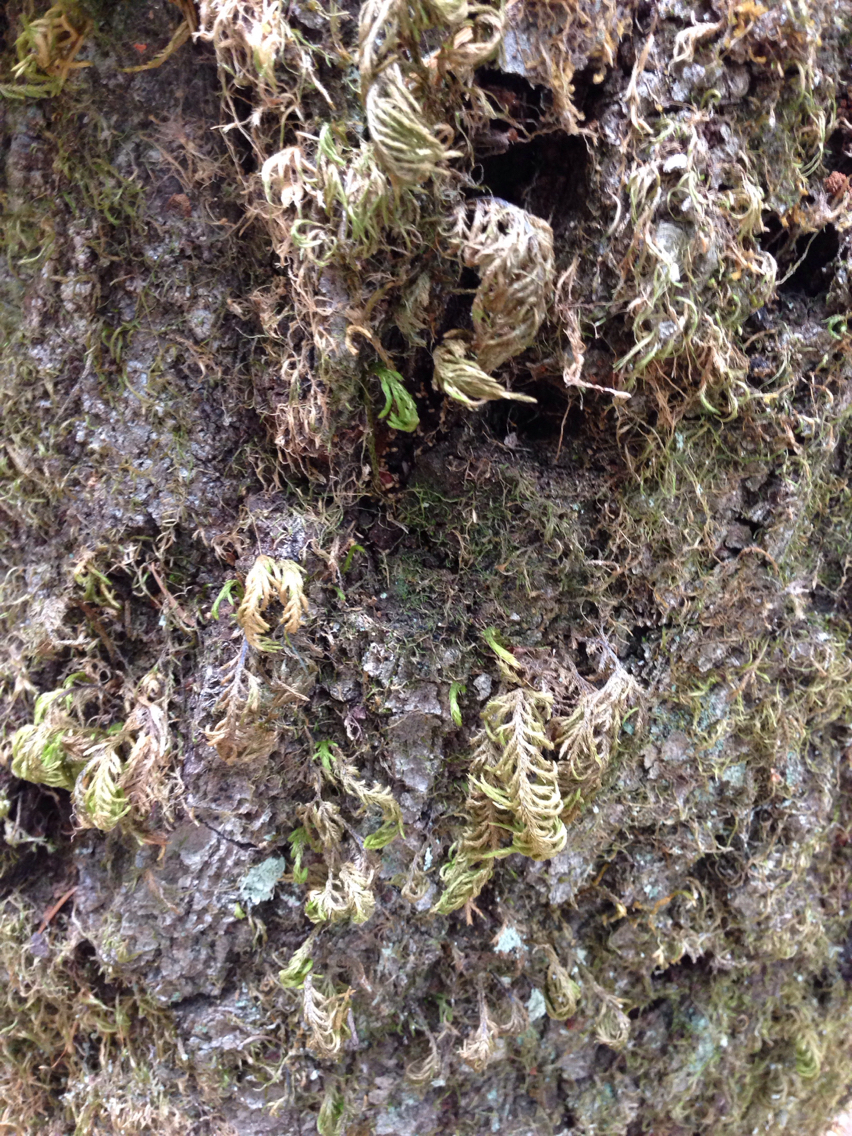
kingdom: Plantae
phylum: Bryophyta
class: Bryopsida
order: Hypnales
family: Cryphaeaceae
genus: Dendroalsia
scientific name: Dendroalsia abietina
